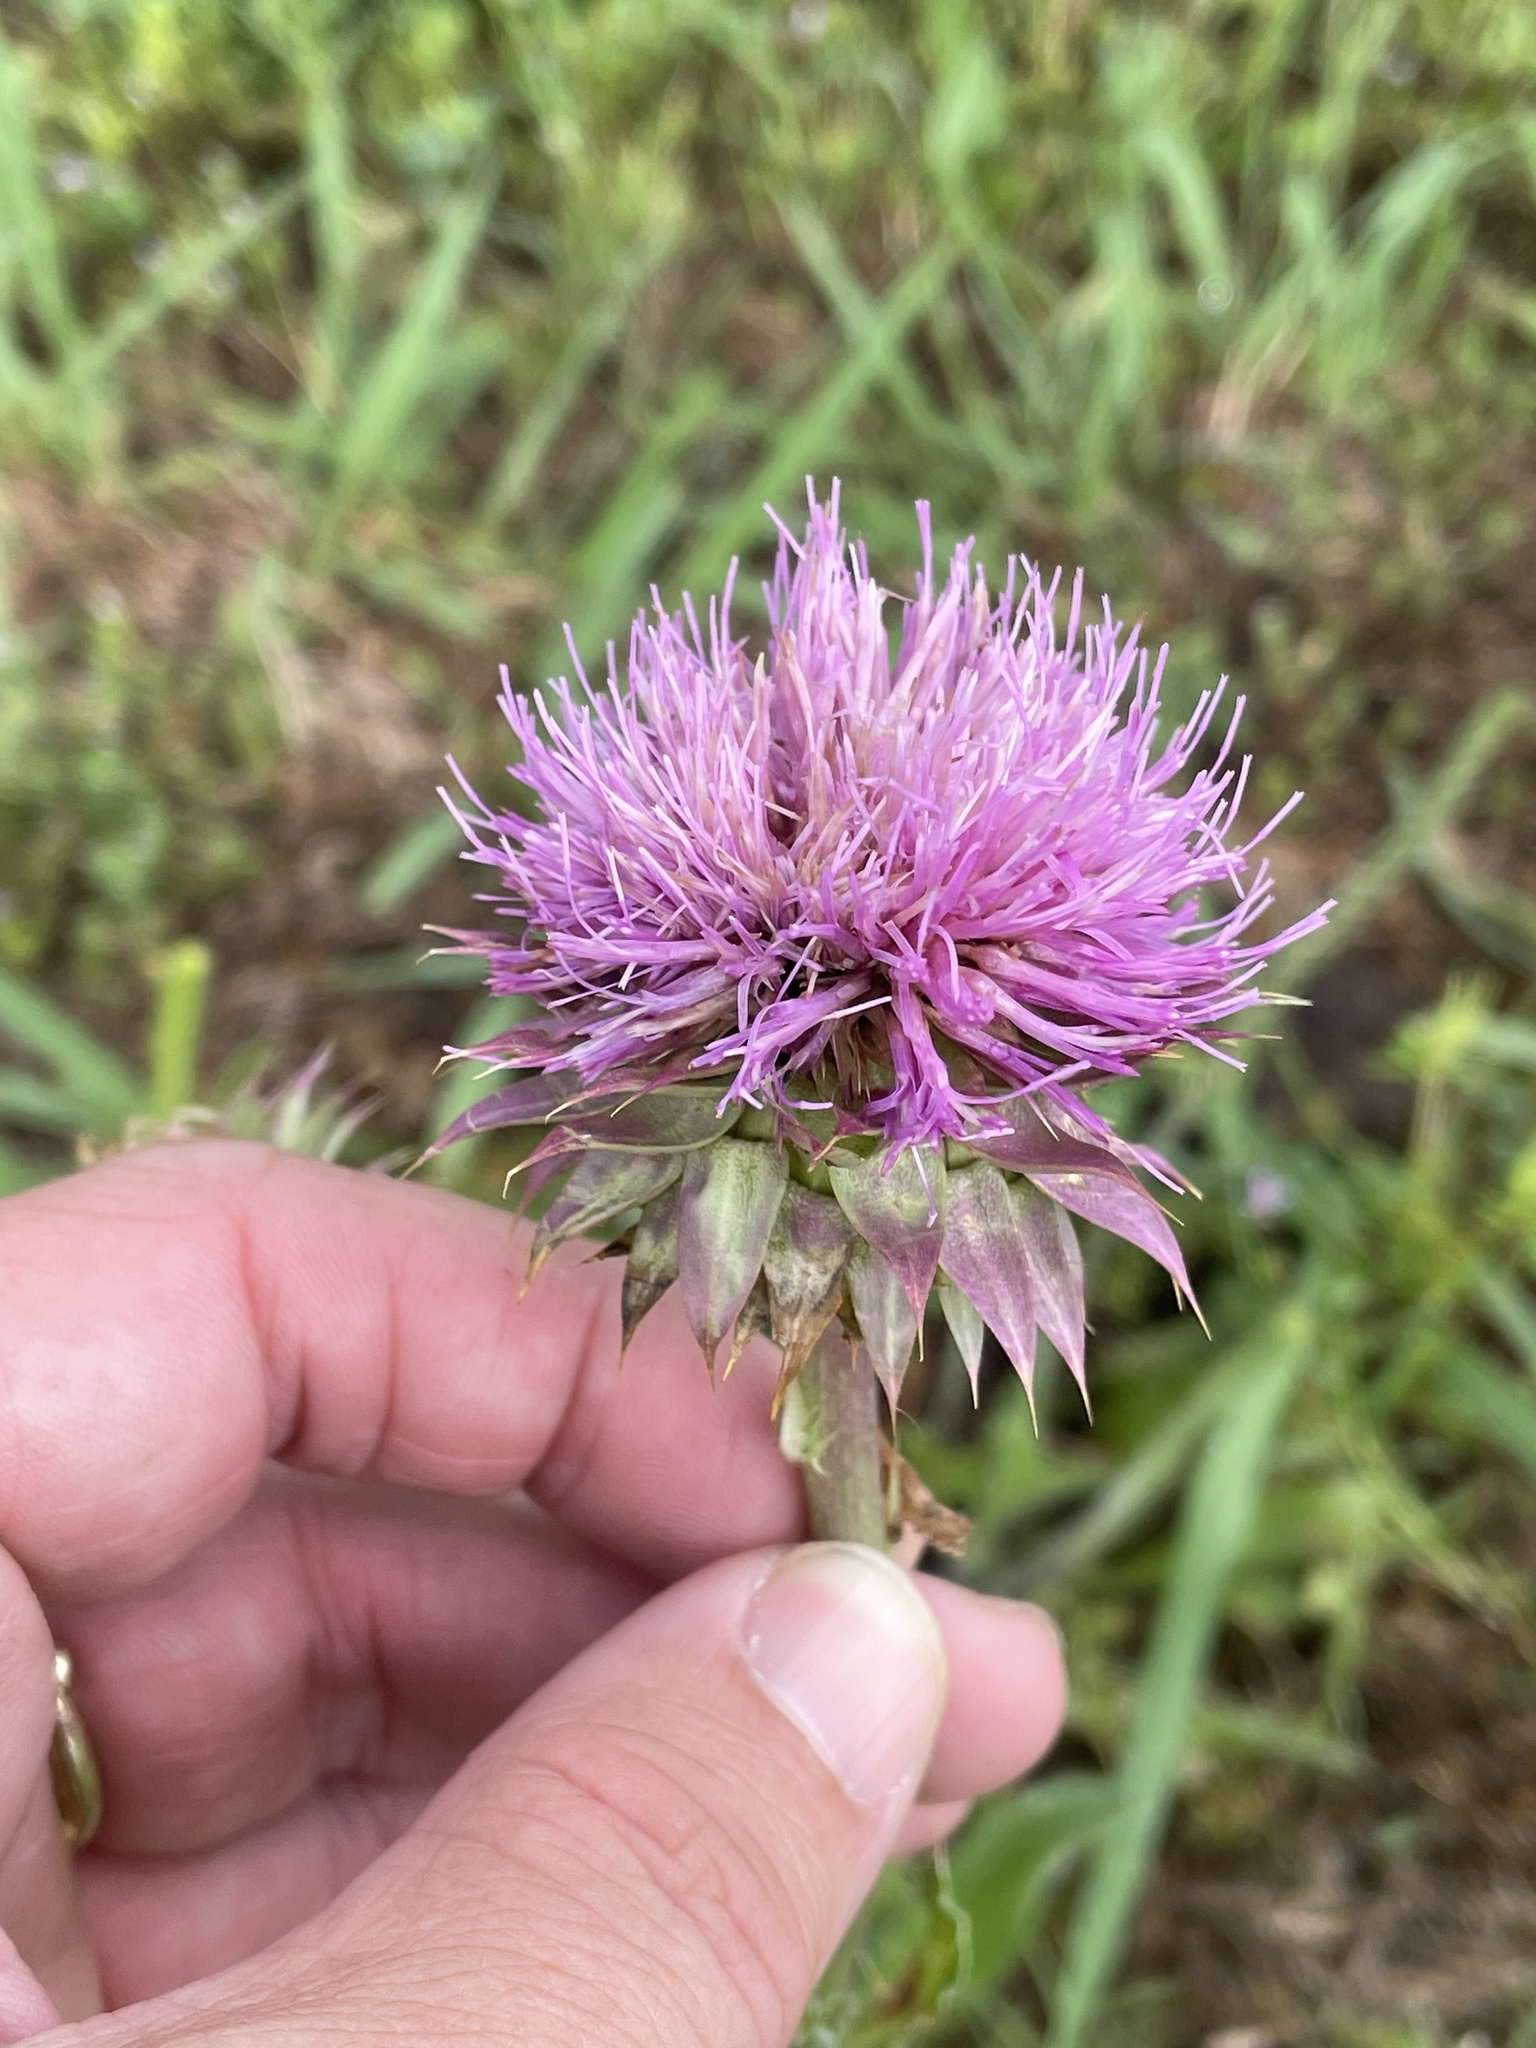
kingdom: Plantae
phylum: Tracheophyta
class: Magnoliopsida
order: Asterales
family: Asteraceae
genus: Carduus
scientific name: Carduus nutans
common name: Musk thistle
